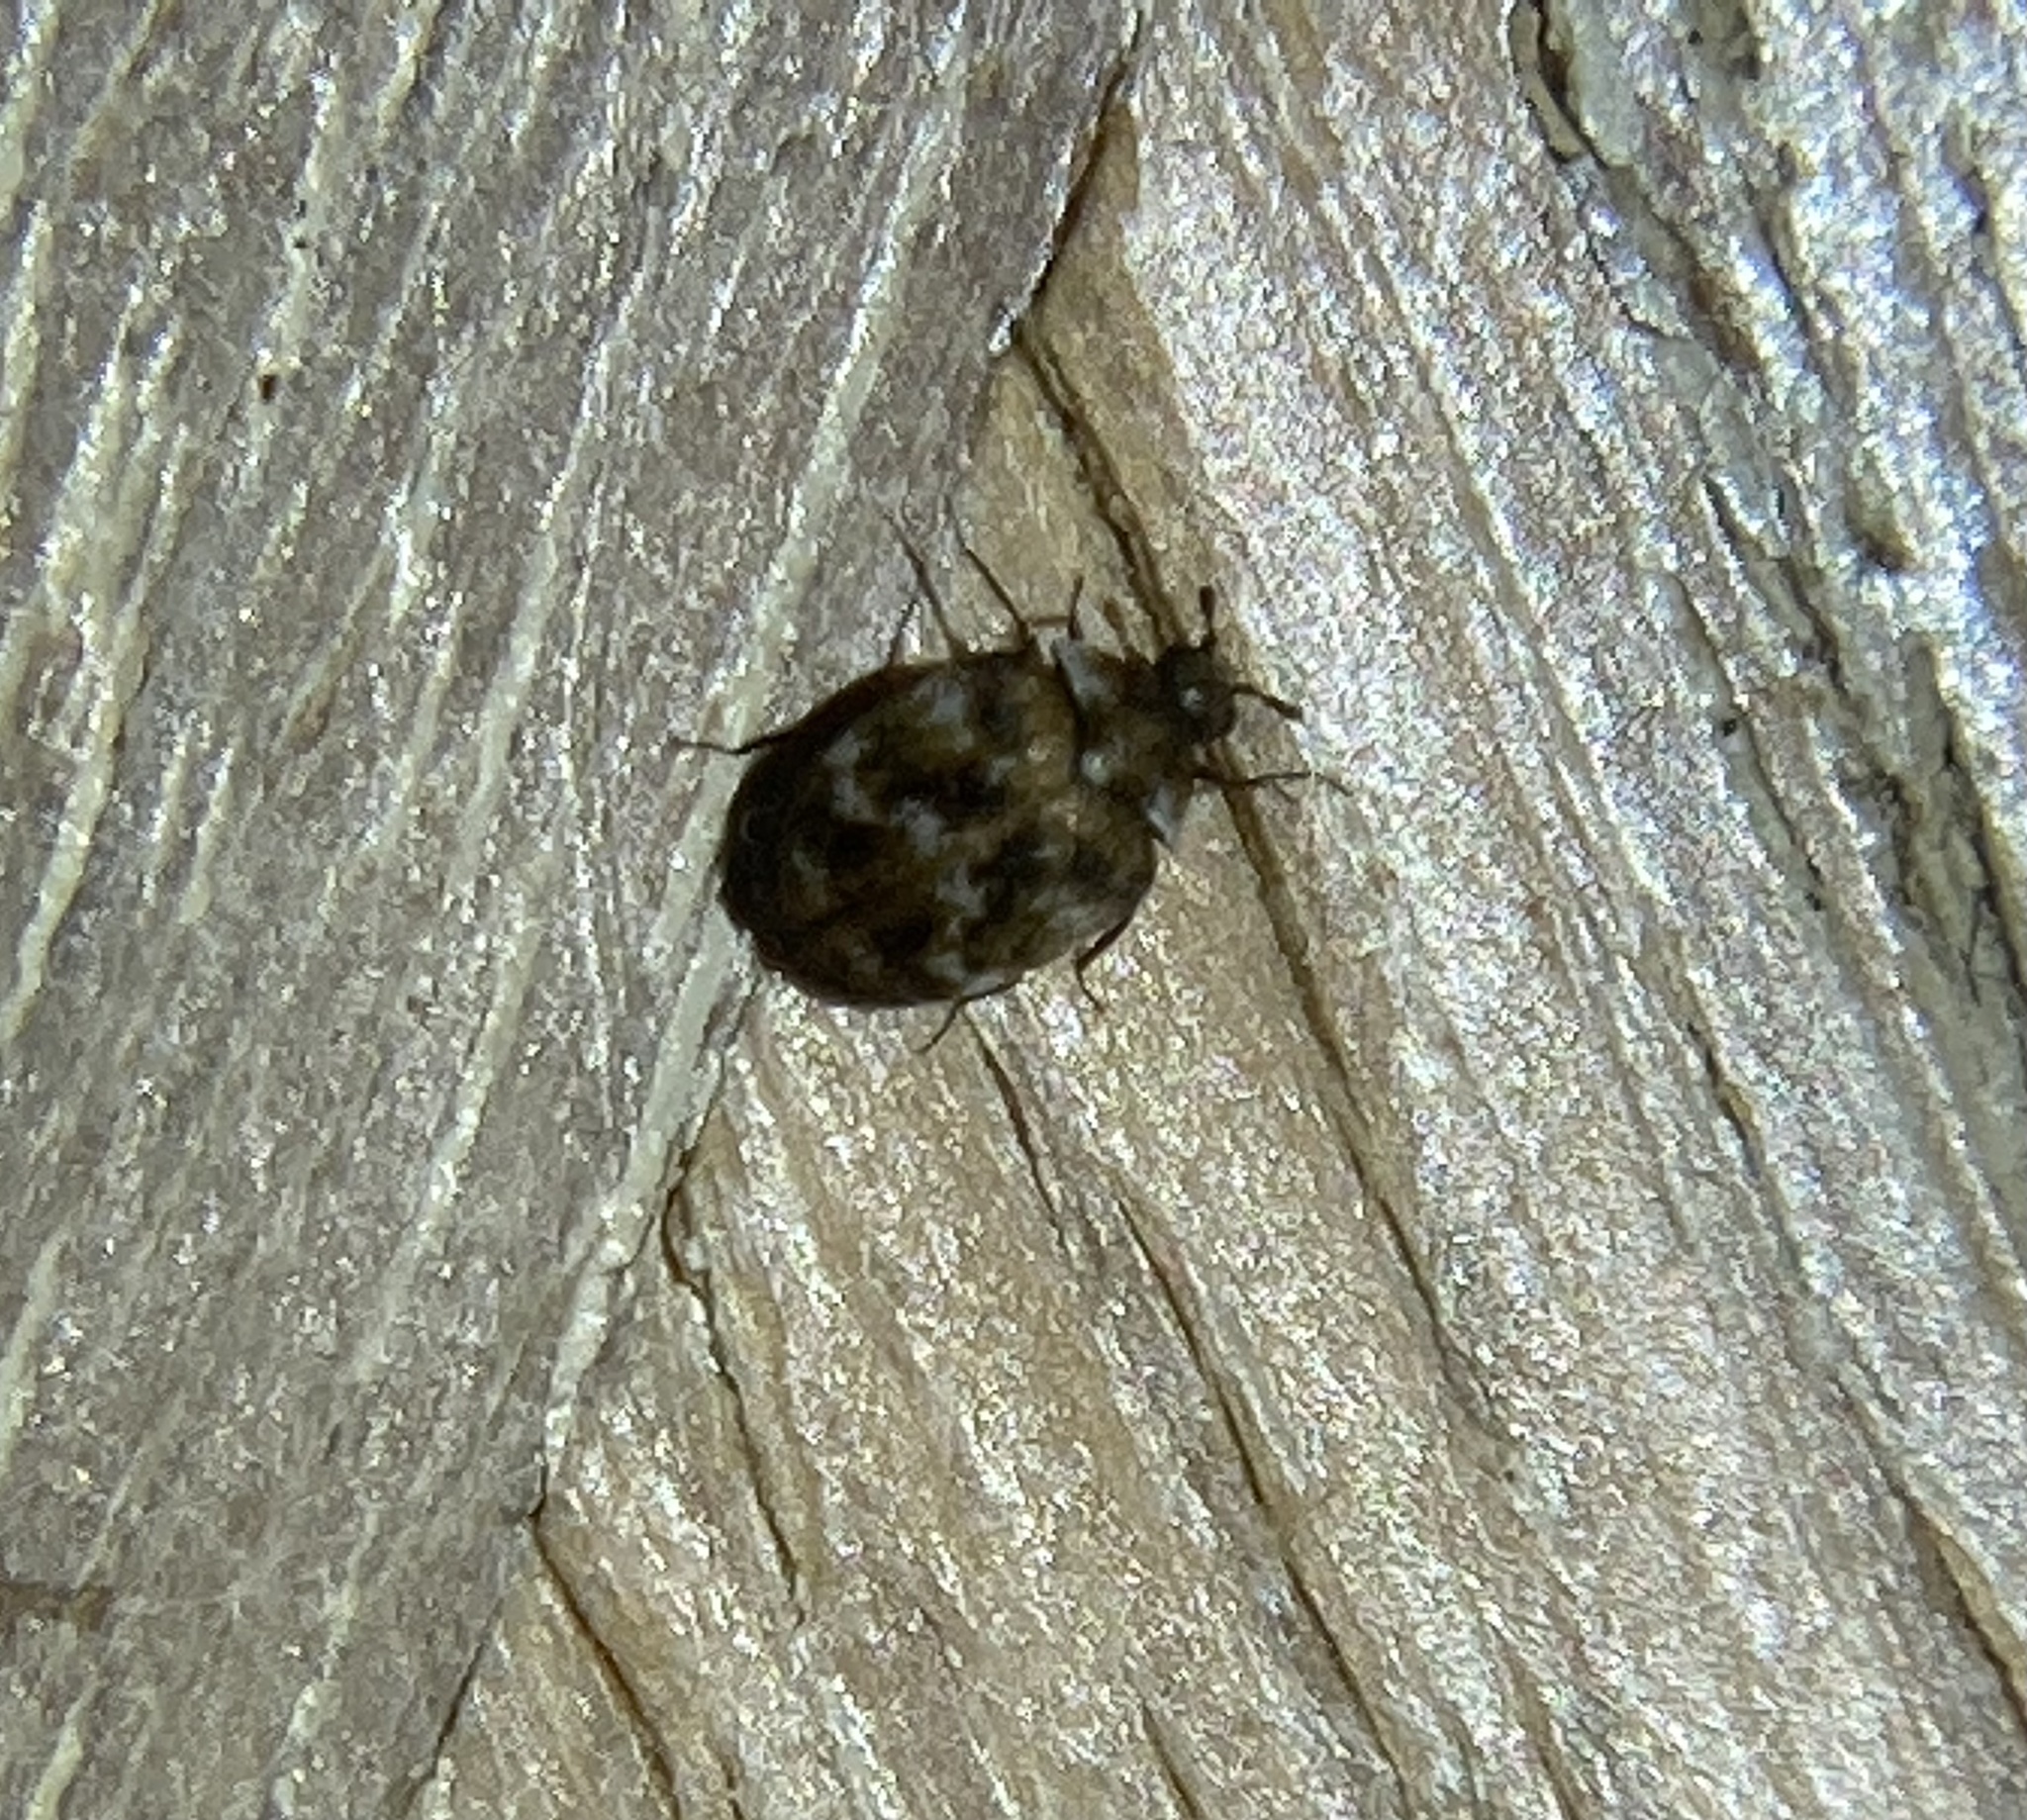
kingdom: Animalia
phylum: Arthropoda
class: Insecta
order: Coleoptera
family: Dermestidae
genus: Anthrenus
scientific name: Anthrenus verbasci
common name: Varied carpet beetle
